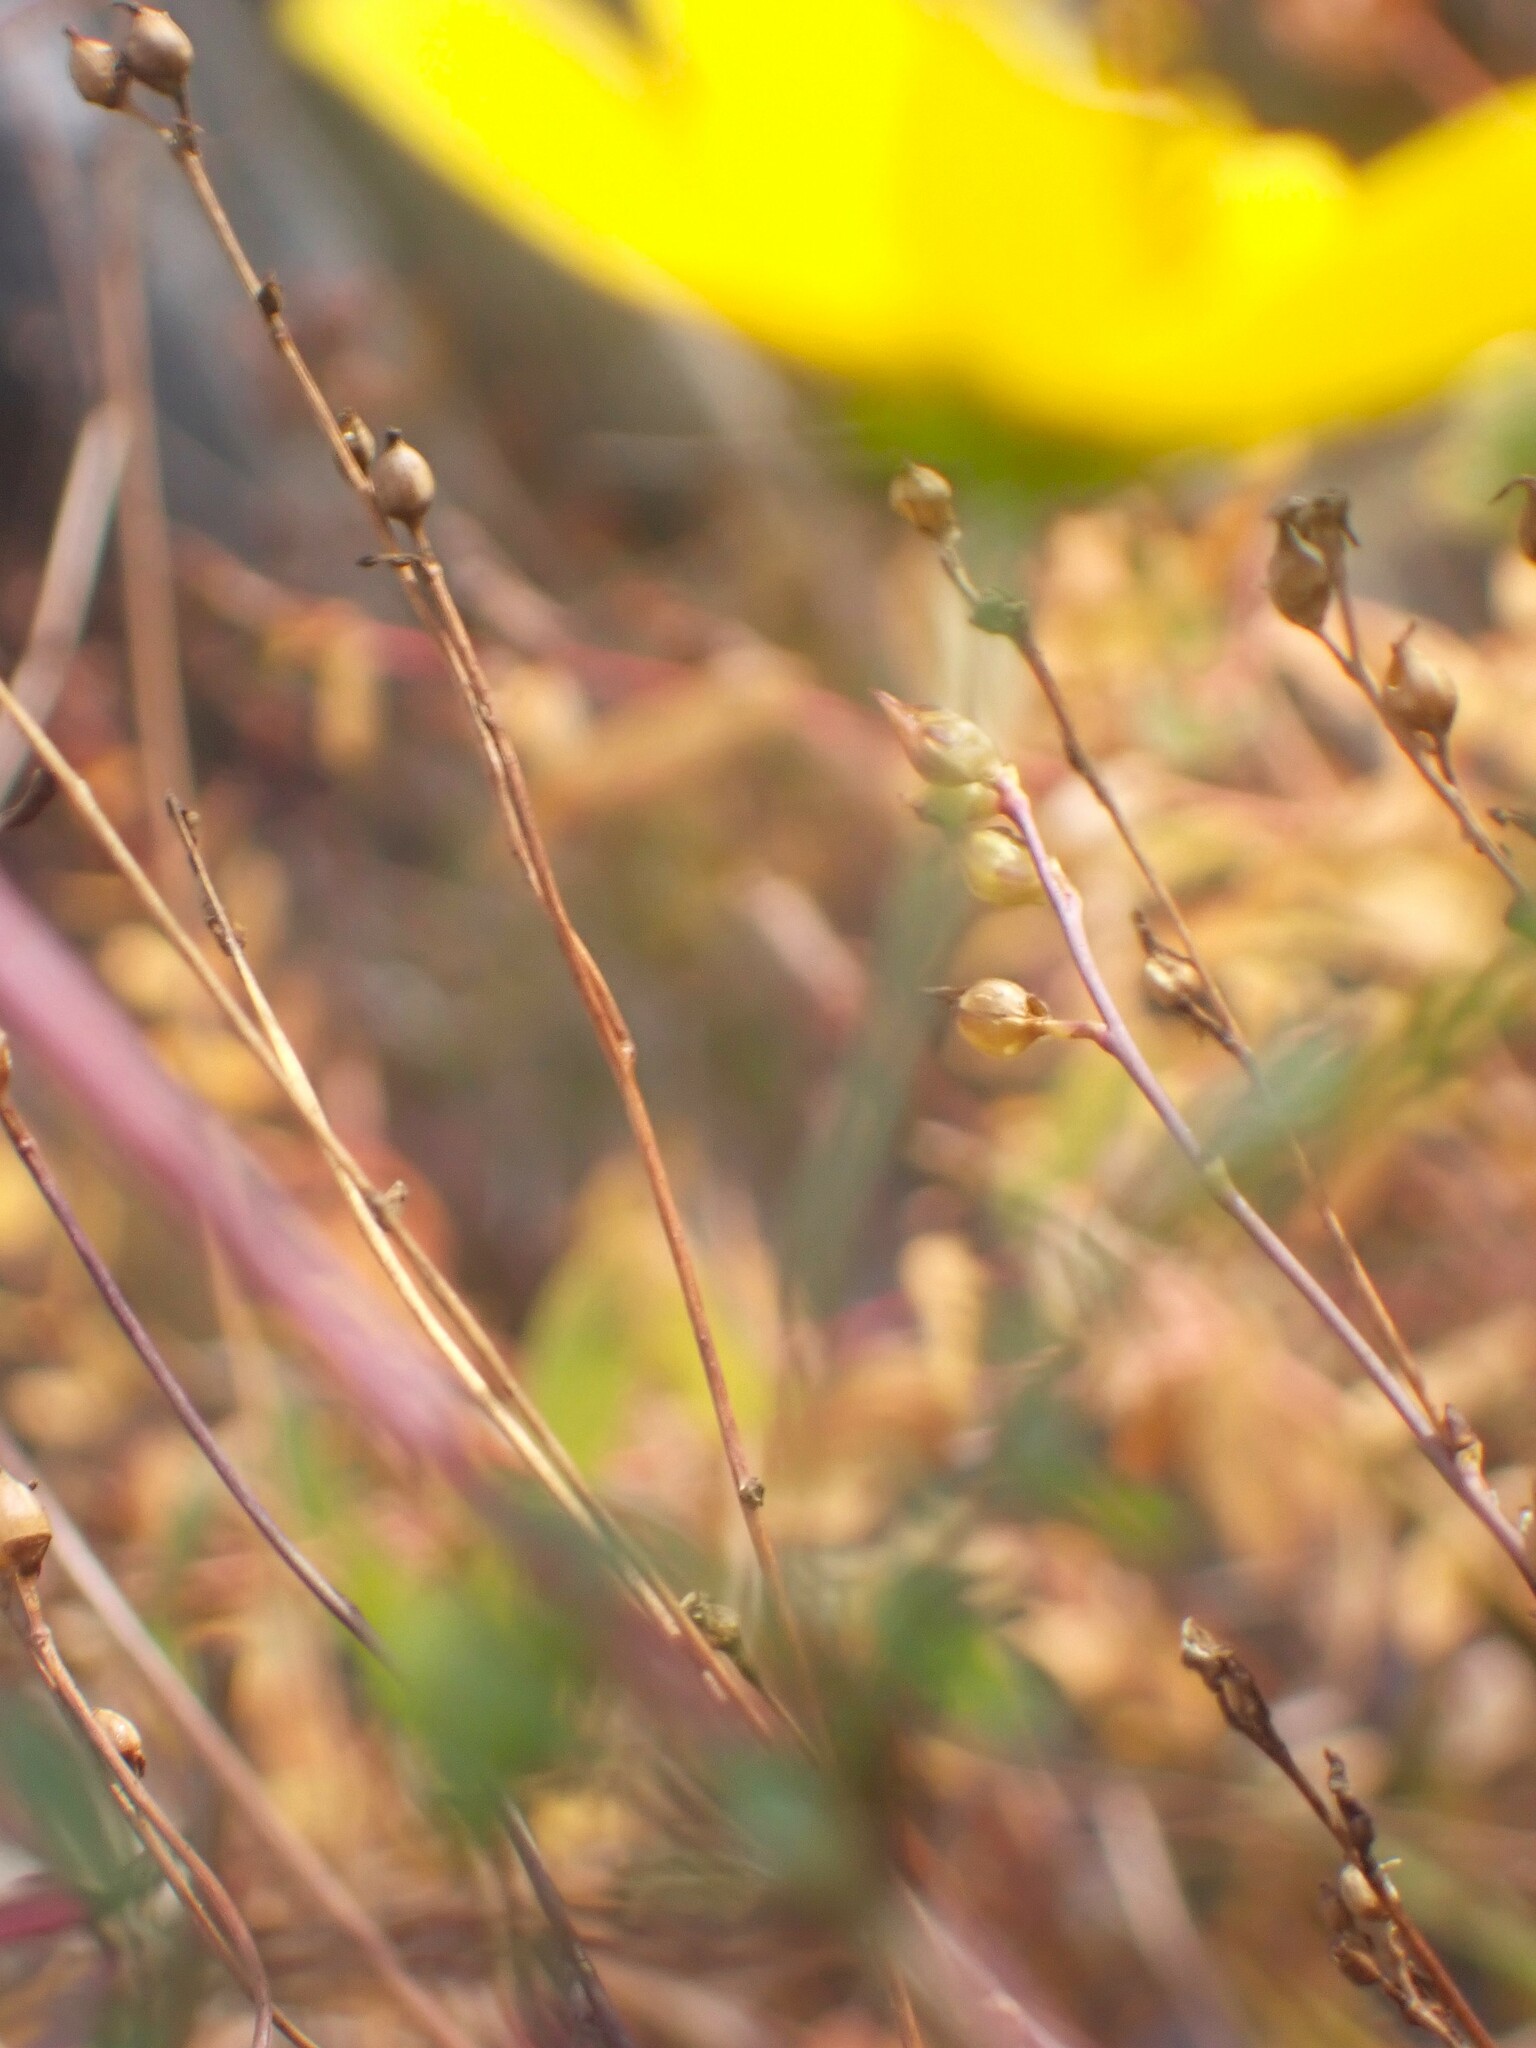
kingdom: Plantae
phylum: Tracheophyta
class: Magnoliopsida
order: Lamiales
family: Lentibulariaceae
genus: Utricularia
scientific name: Utricularia juncea
